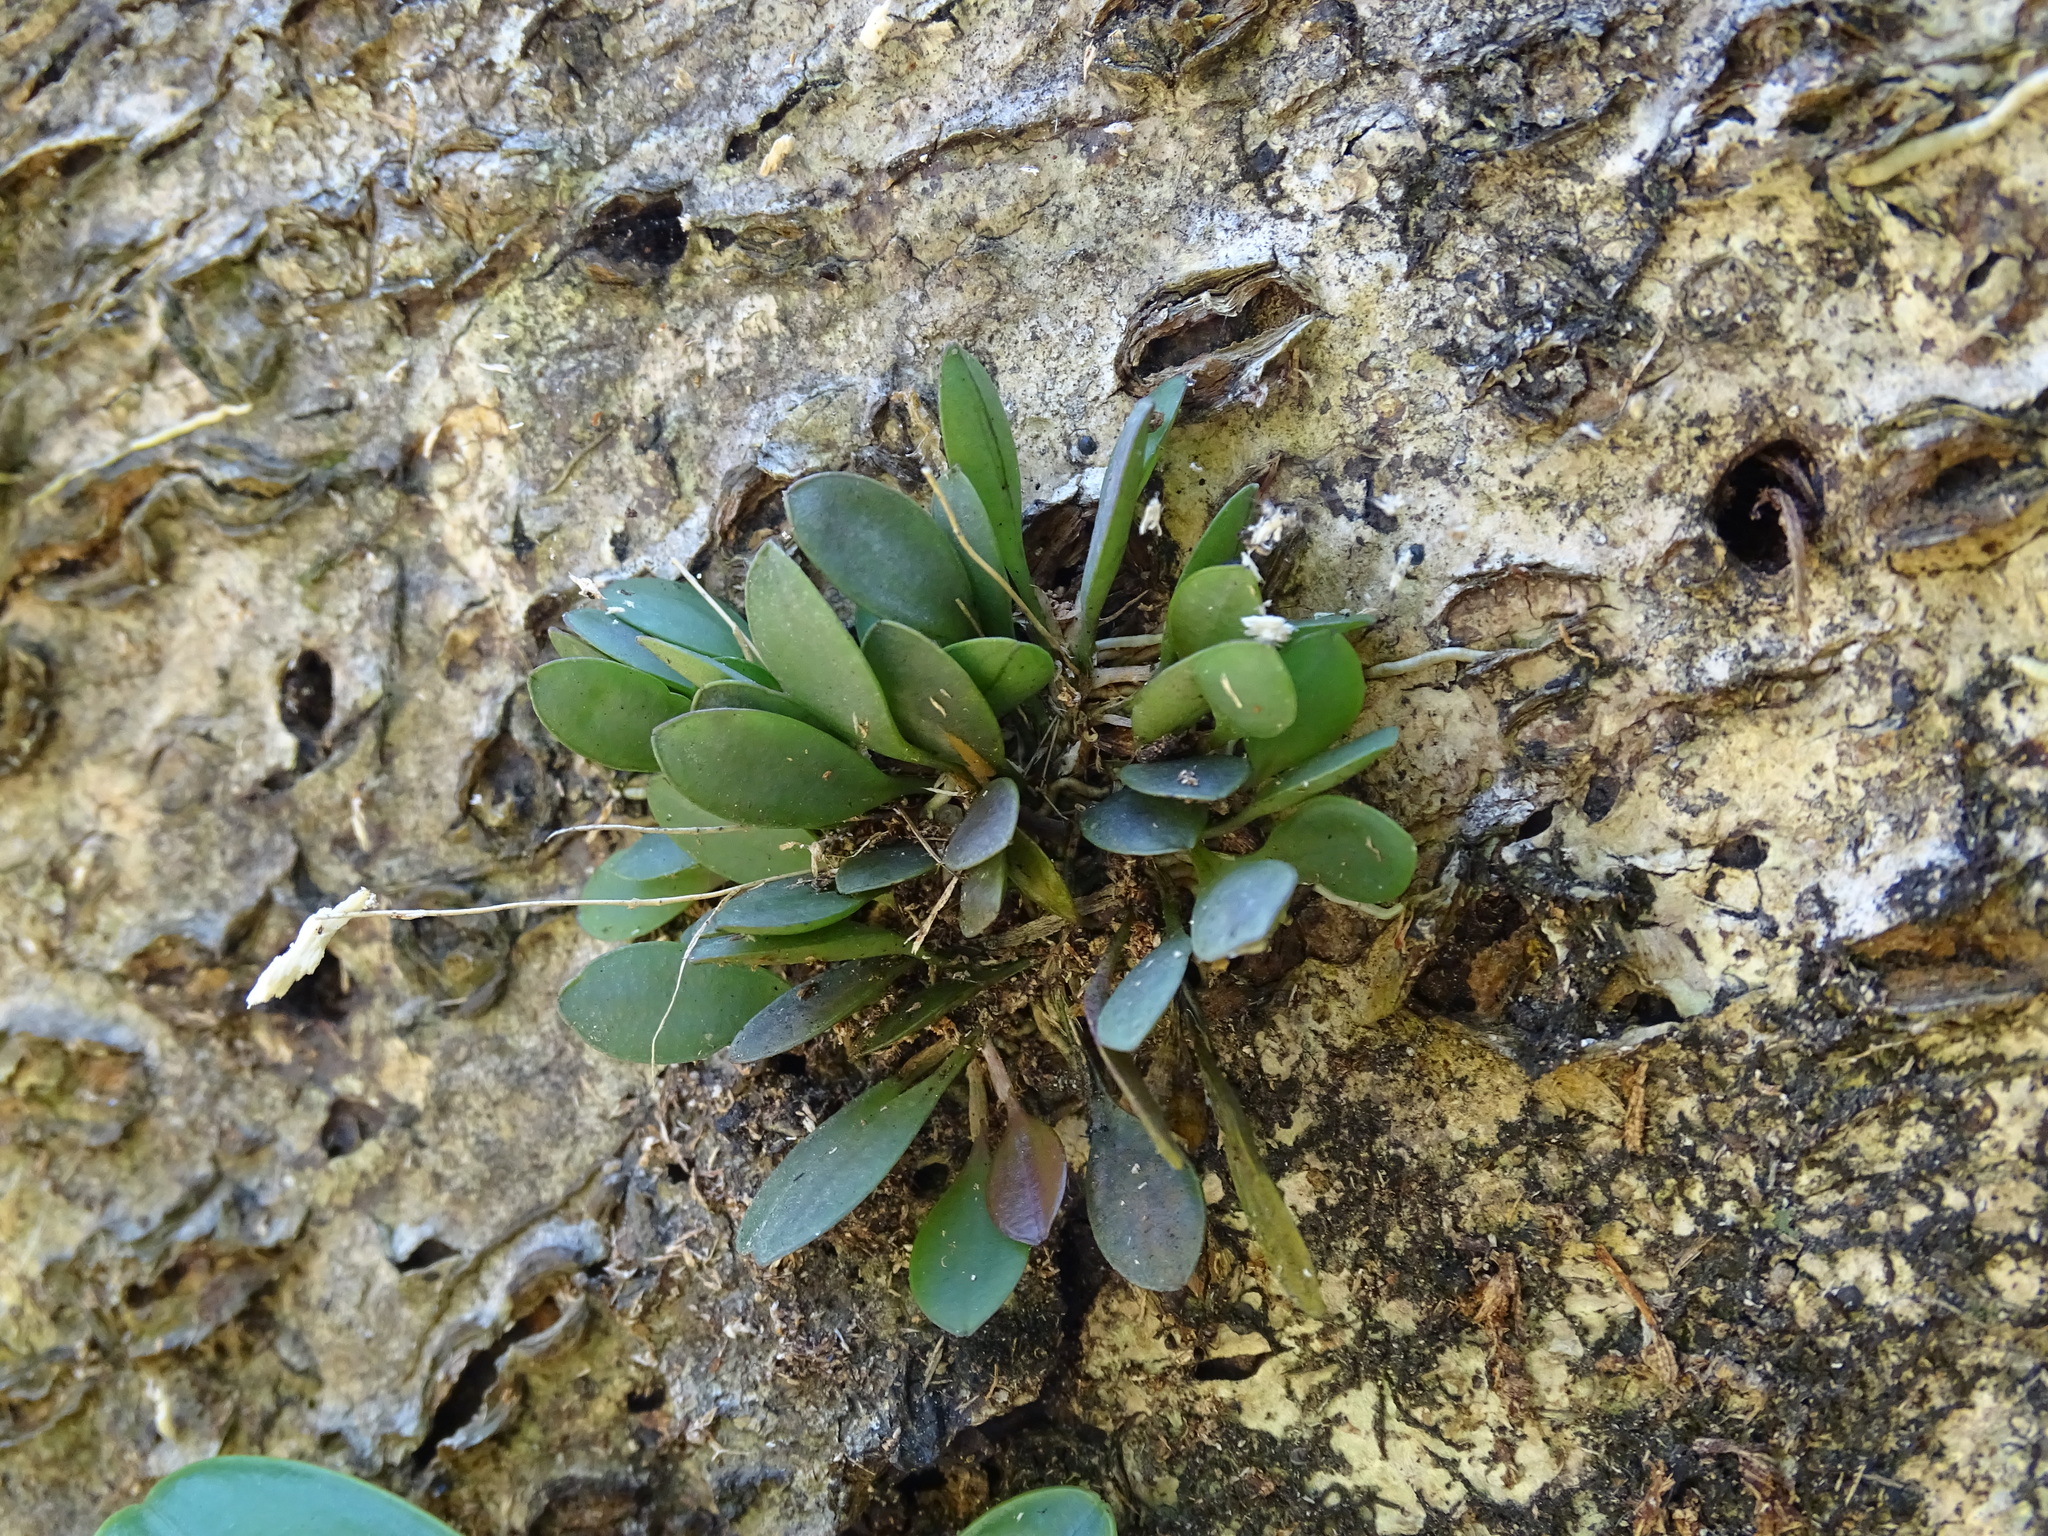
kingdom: Plantae
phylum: Tracheophyta
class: Liliopsida
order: Asparagales
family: Orchidaceae
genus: Specklinia
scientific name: Specklinia picta
